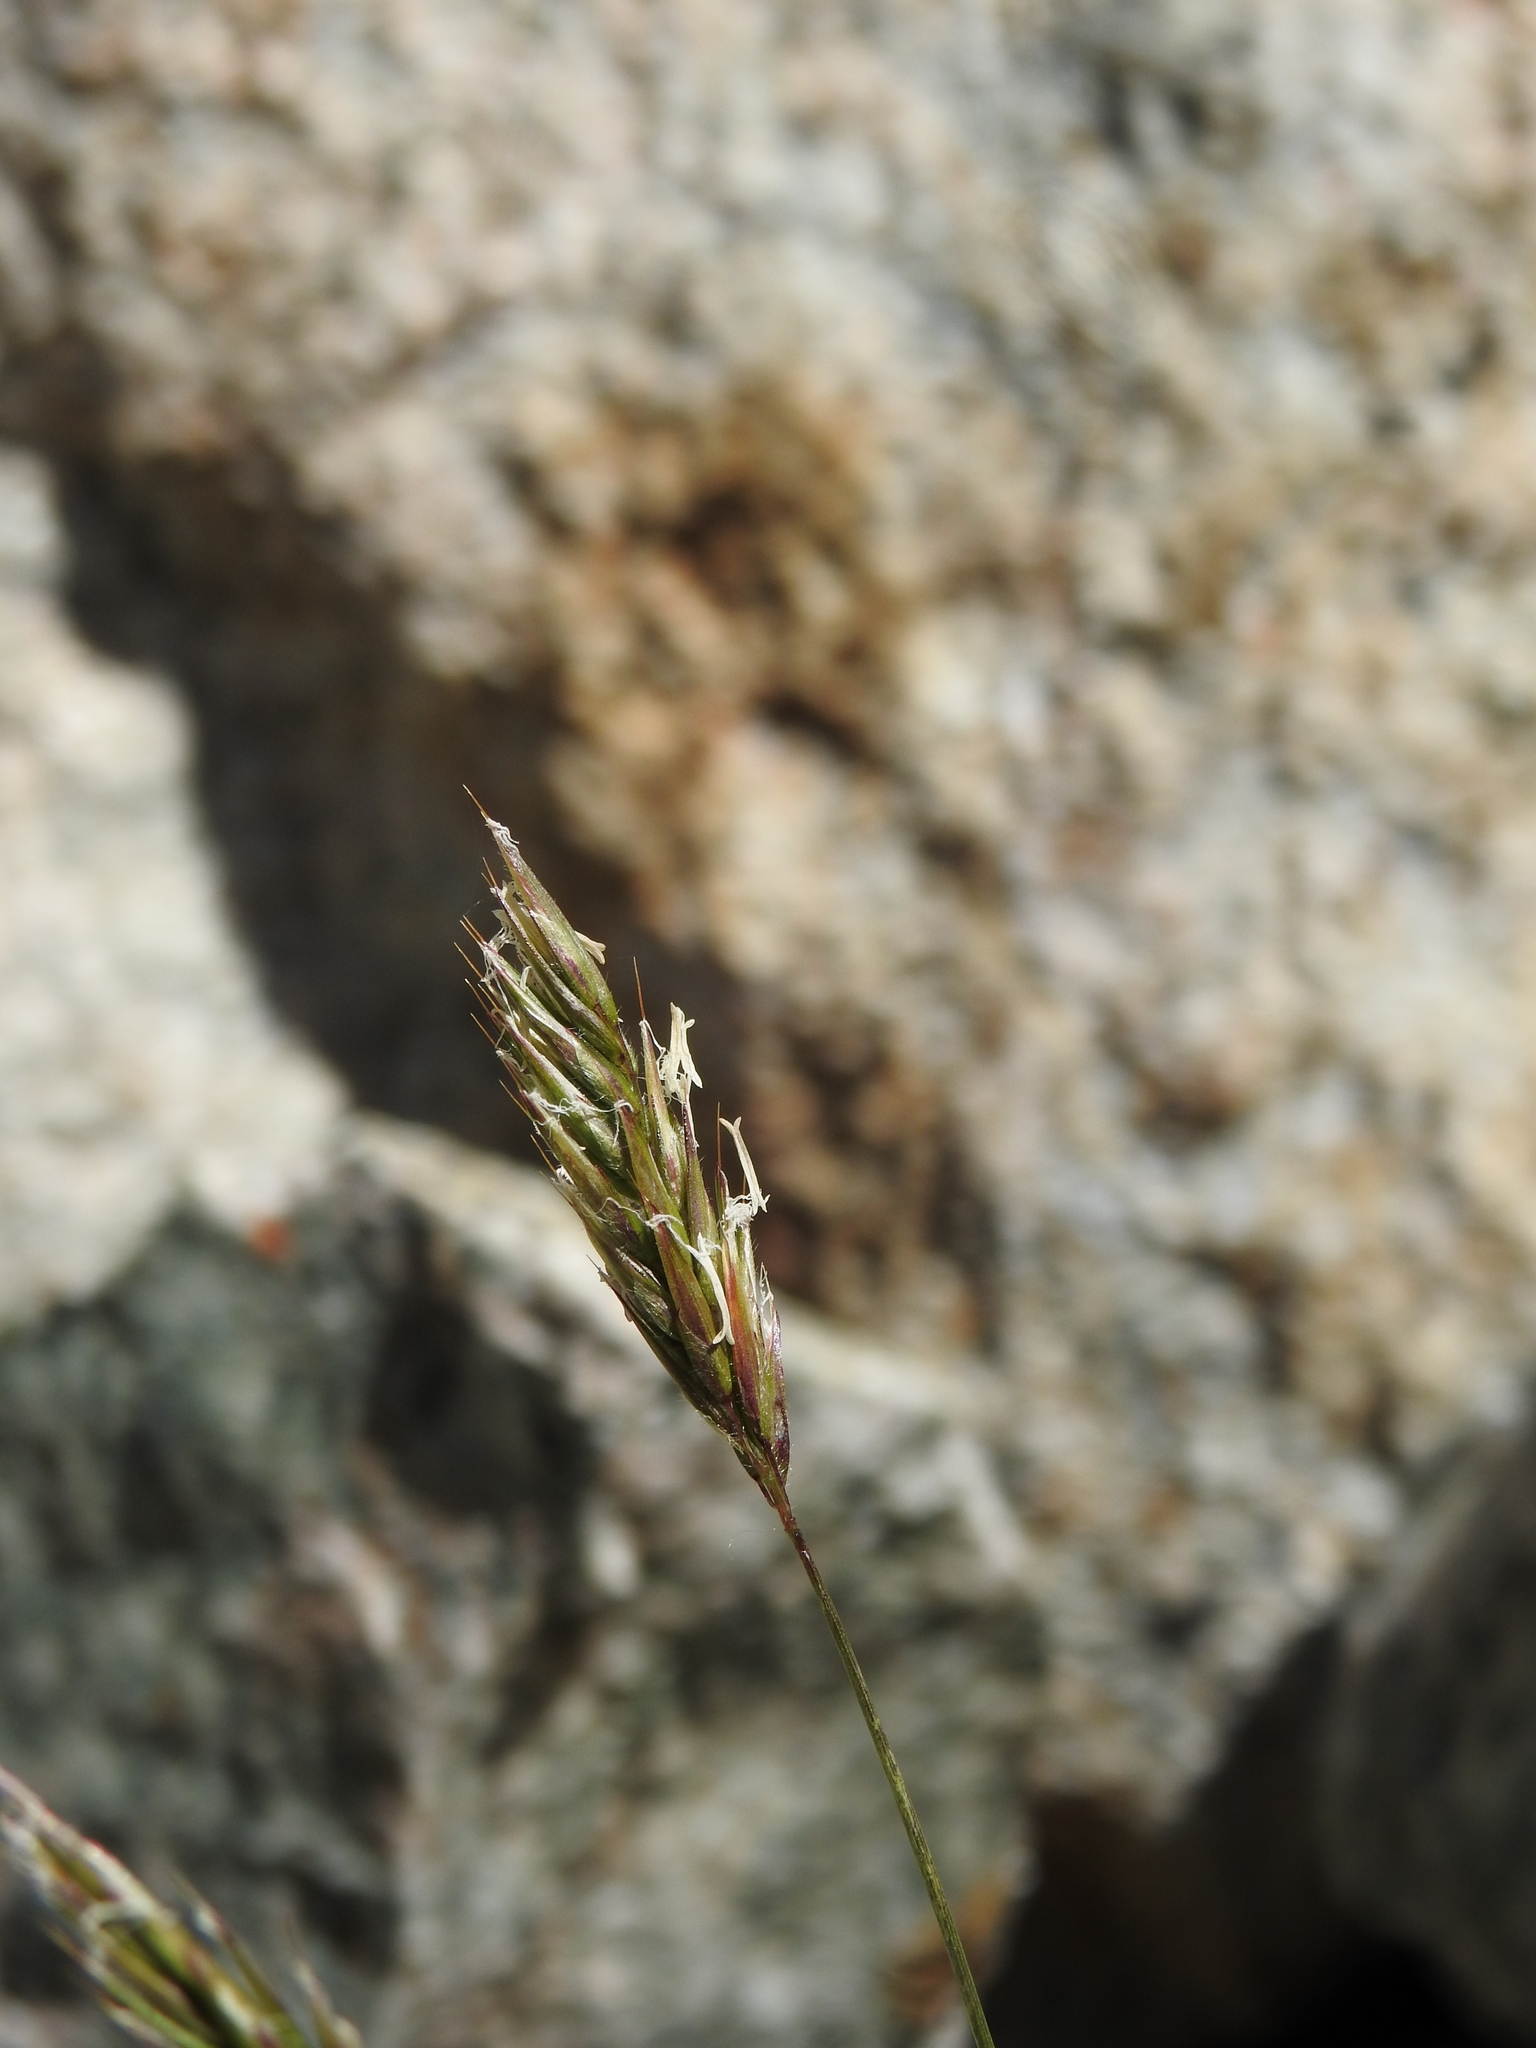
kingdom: Plantae
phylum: Tracheophyta
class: Liliopsida
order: Poales
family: Poaceae
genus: Anthoxanthum
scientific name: Anthoxanthum odoratum
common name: Sweet vernalgrass
